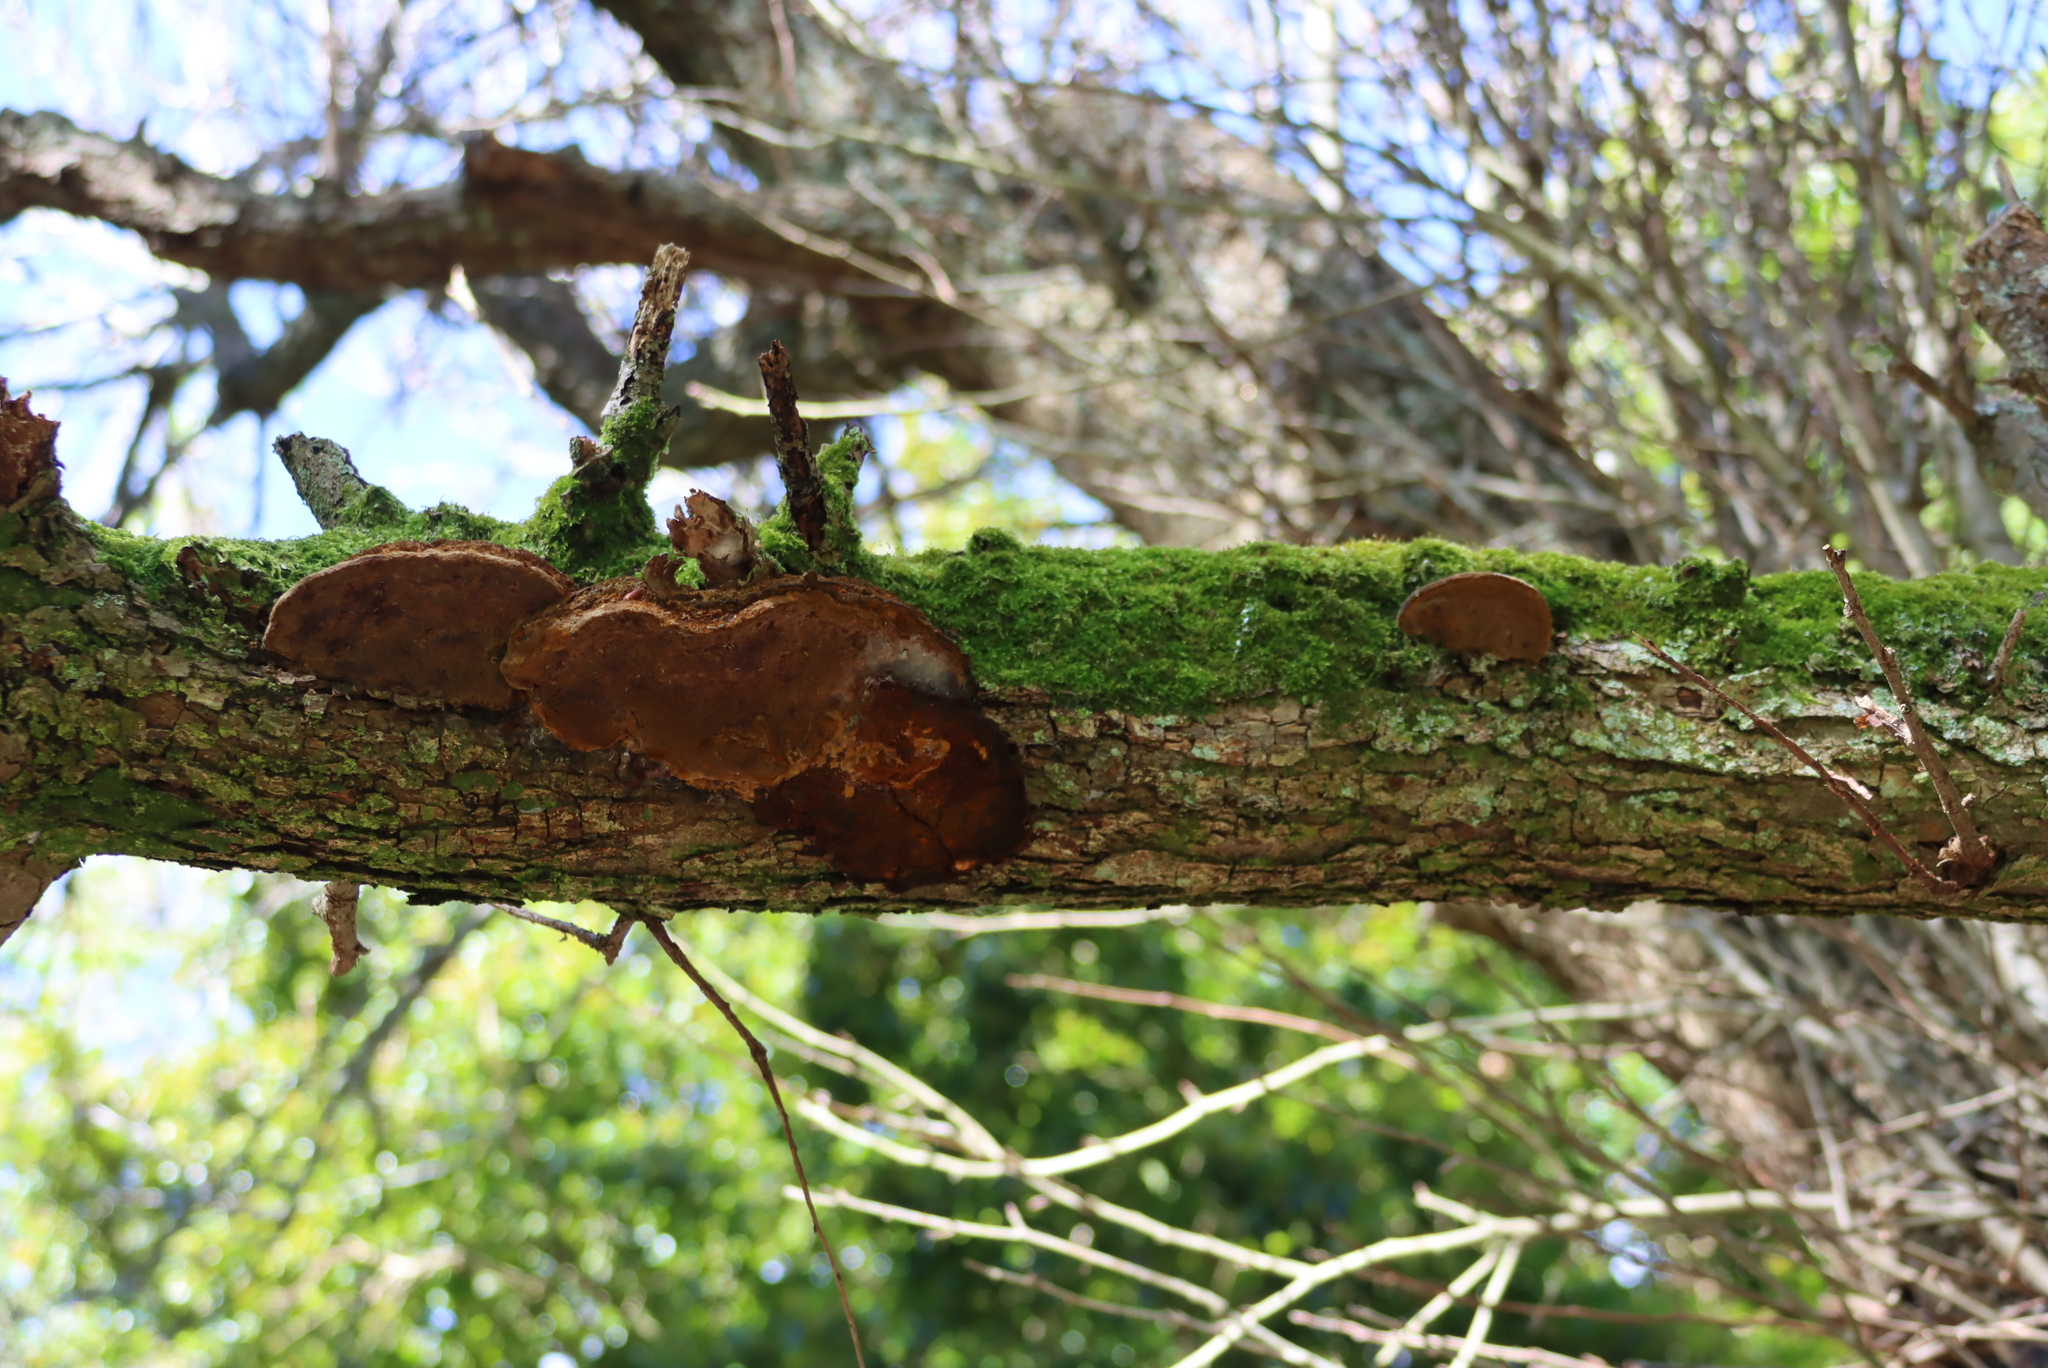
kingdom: Plantae
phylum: Bryophyta
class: Bryopsida
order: Hypnales
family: Sematophyllaceae
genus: Sematophyllum
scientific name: Sematophyllum brachycarpum
